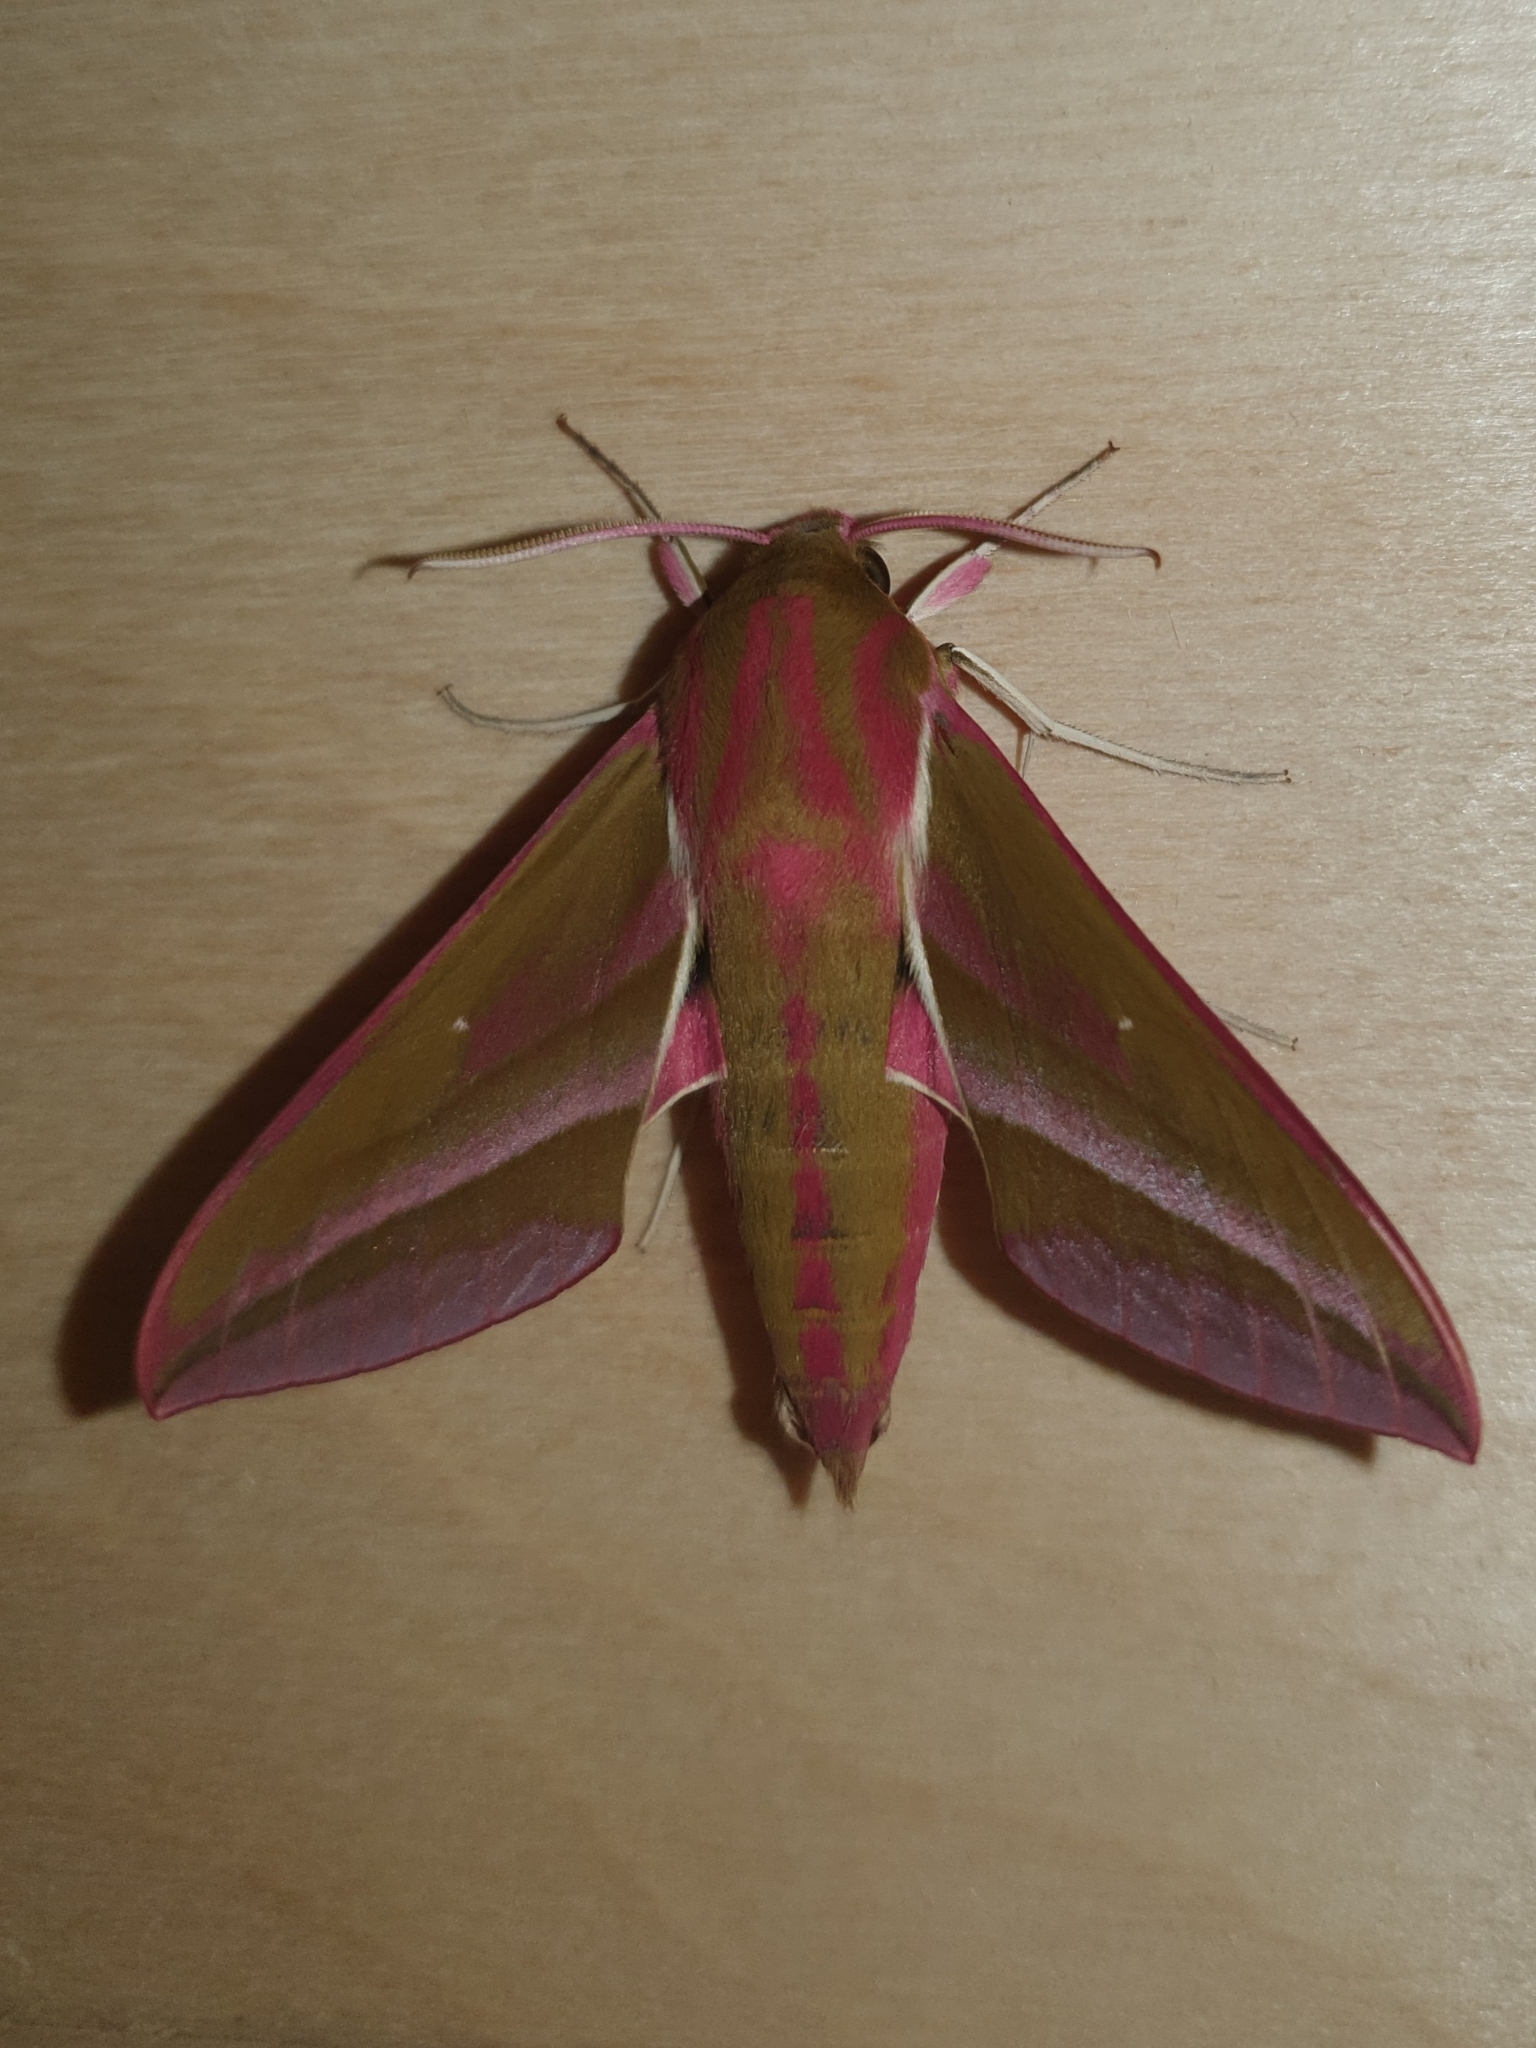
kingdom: Animalia
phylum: Arthropoda
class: Insecta
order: Lepidoptera
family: Sphingidae
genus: Deilephila
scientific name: Deilephila elpenor
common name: Elephant hawk-moth
